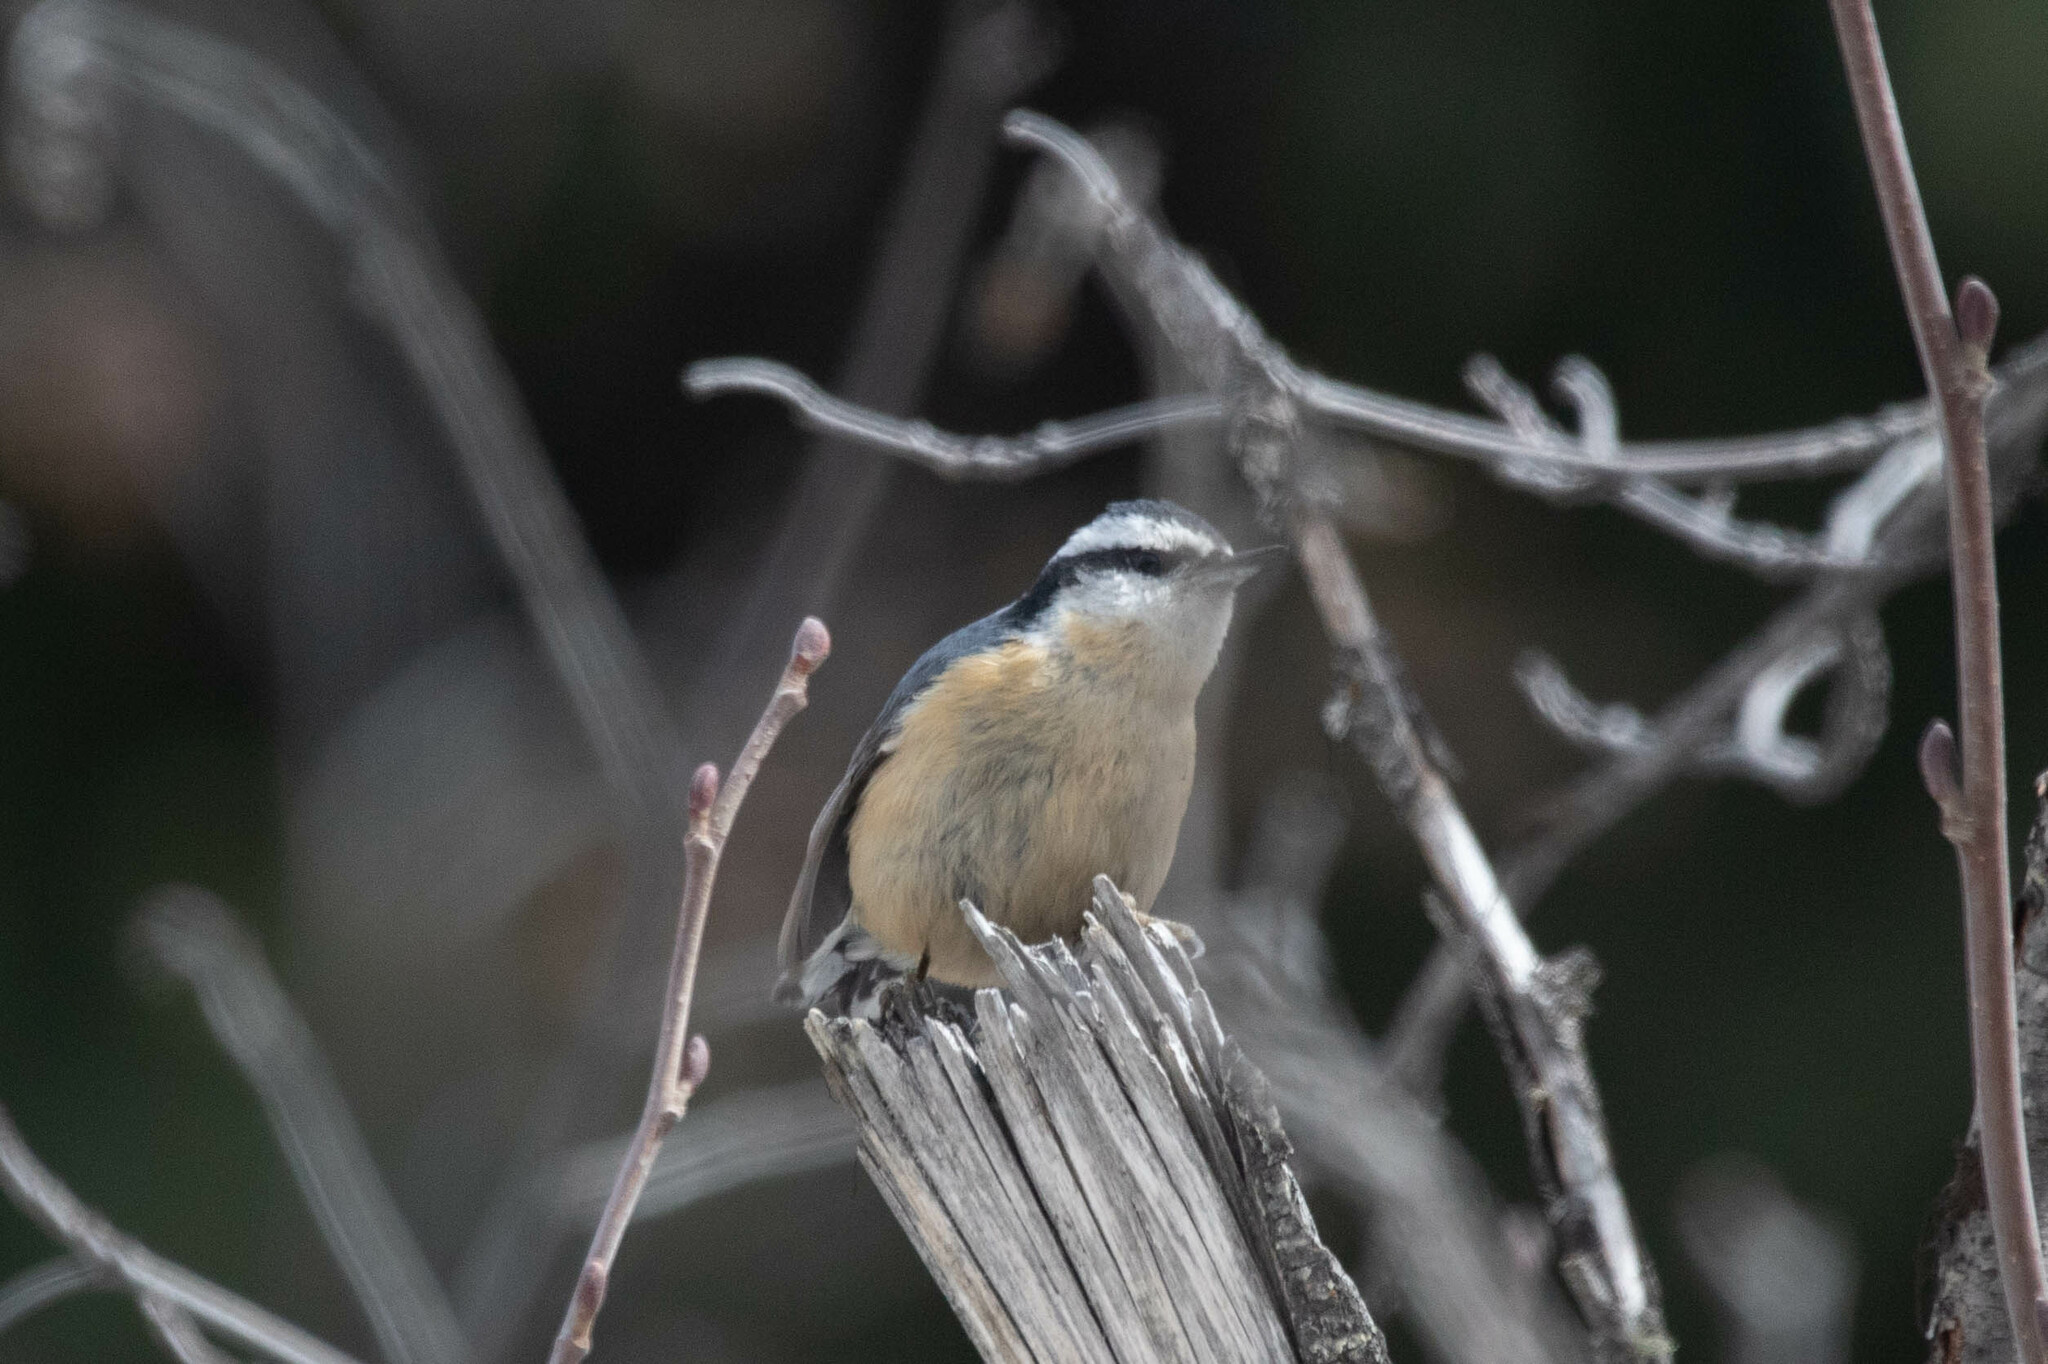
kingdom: Animalia
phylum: Chordata
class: Aves
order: Passeriformes
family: Sittidae
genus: Sitta
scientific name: Sitta canadensis
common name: Red-breasted nuthatch
